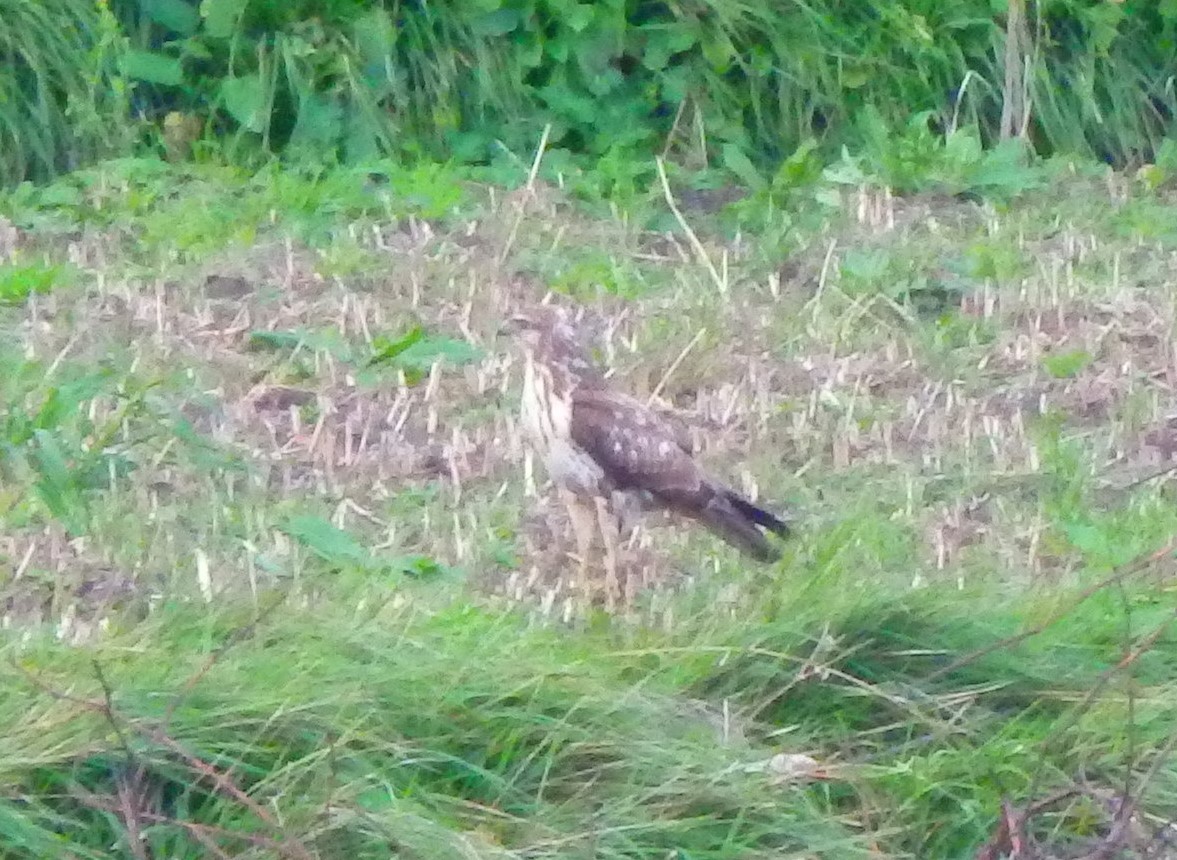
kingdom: Animalia
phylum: Chordata
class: Aves
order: Accipitriformes
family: Accipitridae
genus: Buteo
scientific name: Buteo buteo
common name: Common buzzard
